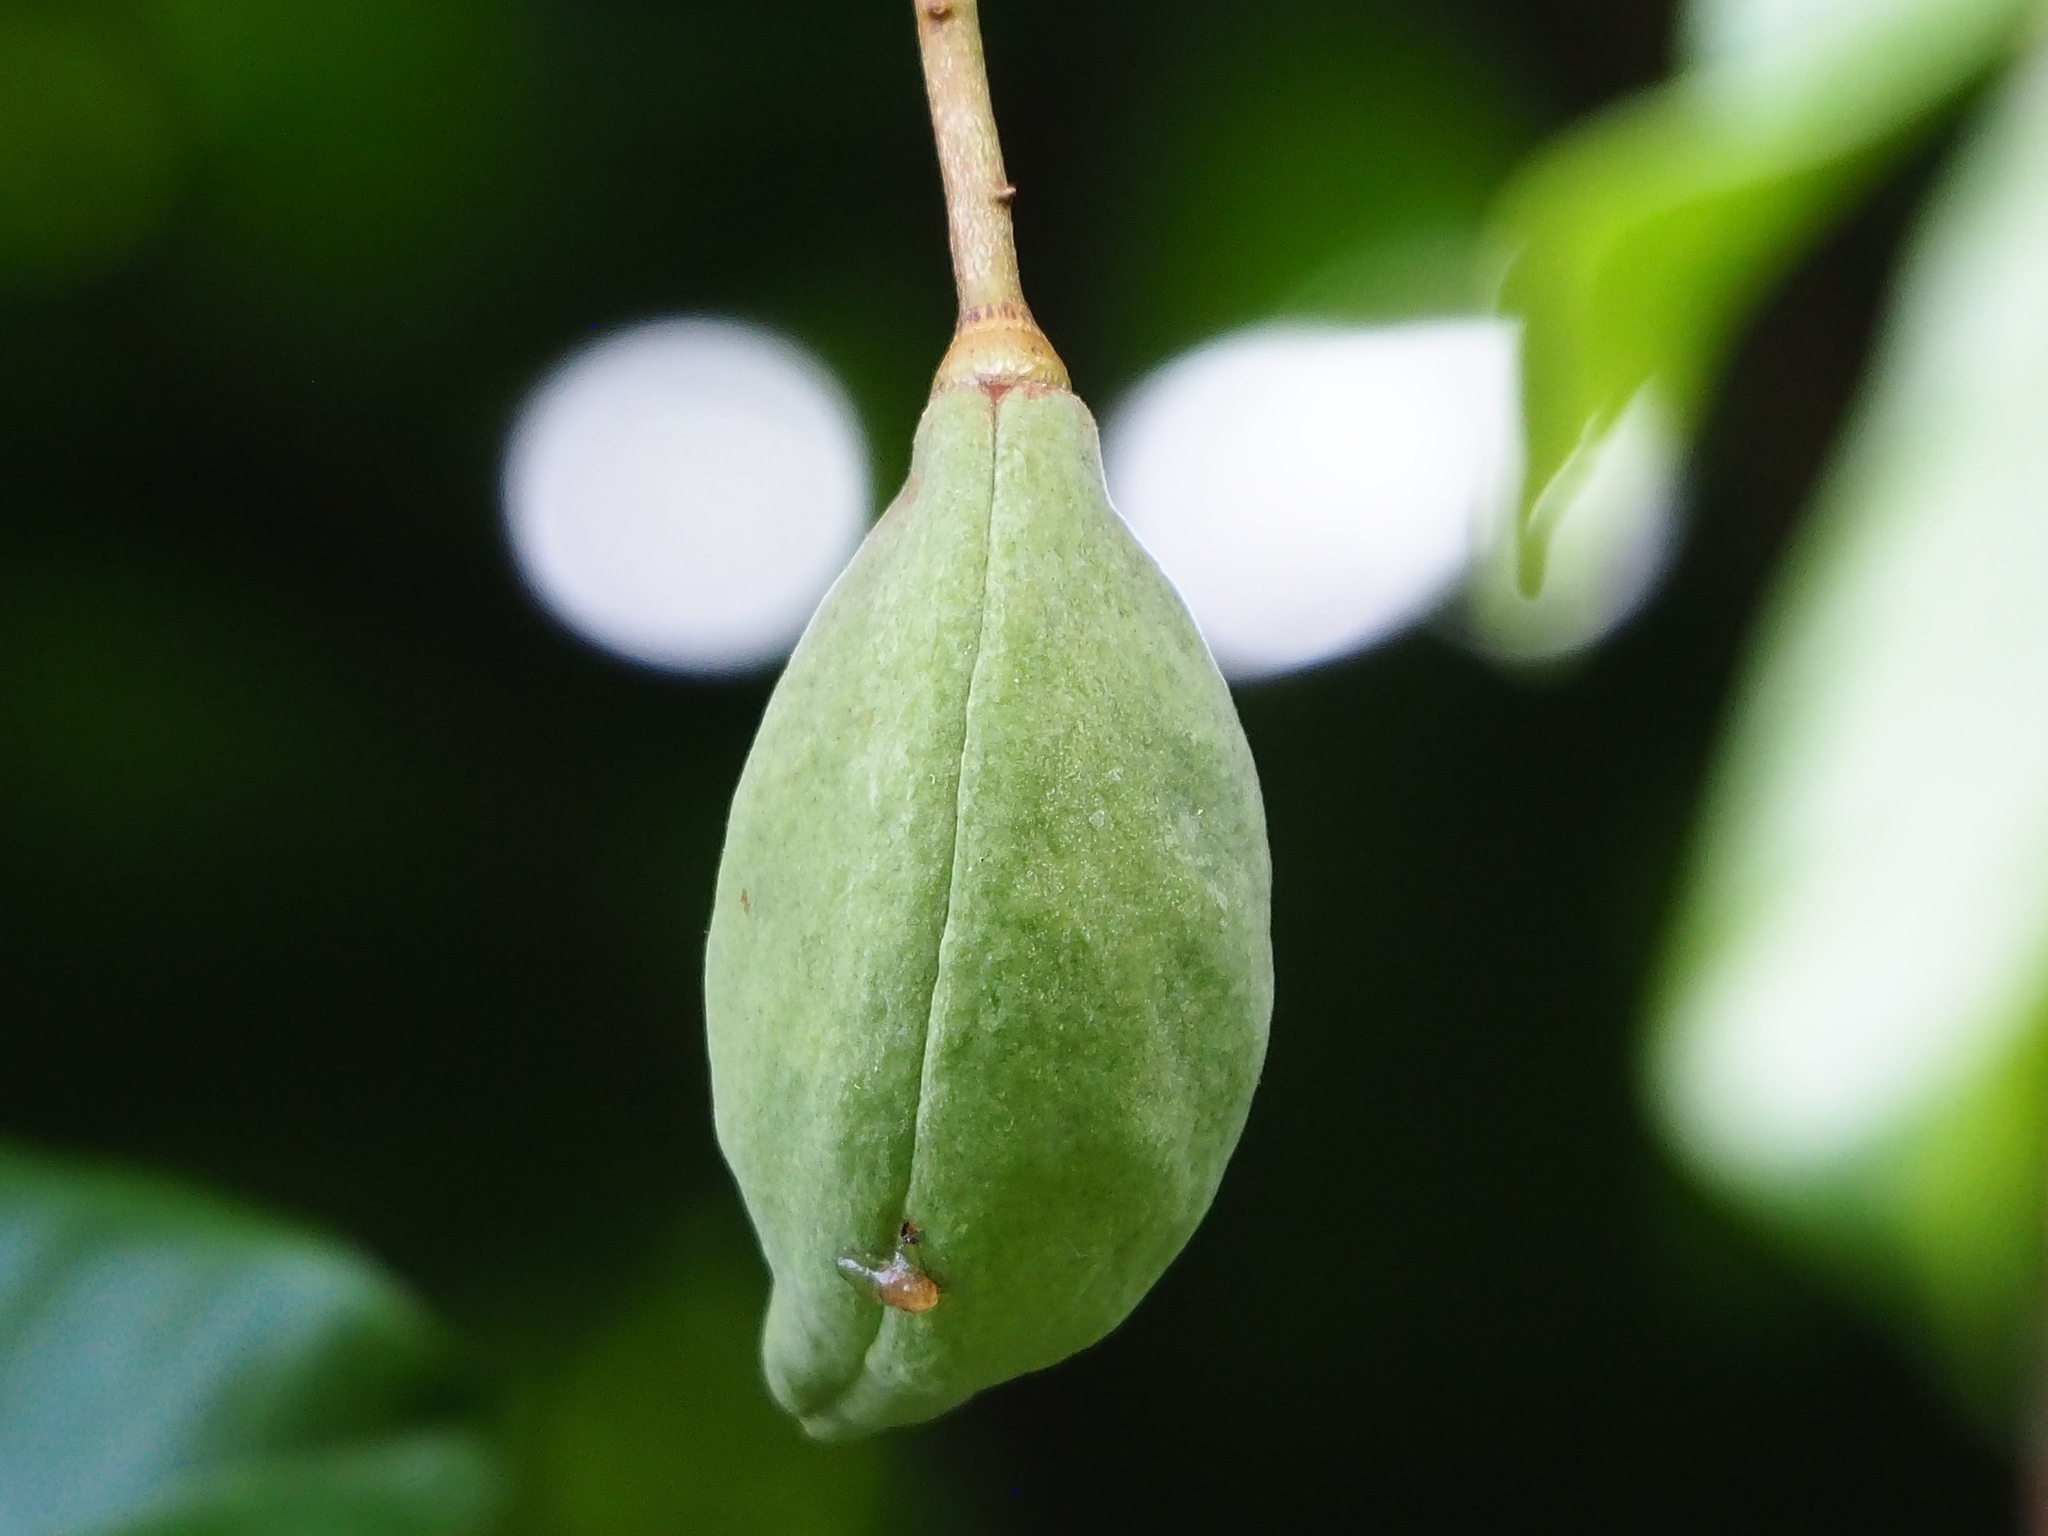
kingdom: Plantae
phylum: Tracheophyta
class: Magnoliopsida
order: Malvales
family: Malvaceae
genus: Sterculia
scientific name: Sterculia monosperma
